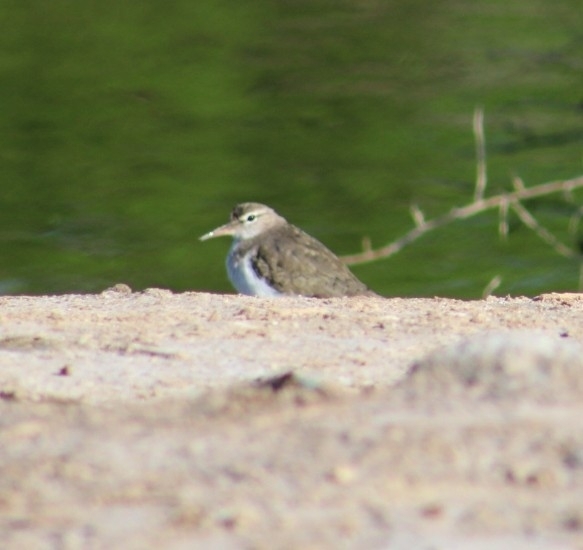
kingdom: Animalia
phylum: Chordata
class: Aves
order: Charadriiformes
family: Scolopacidae
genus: Actitis
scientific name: Actitis macularius
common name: Spotted sandpiper
